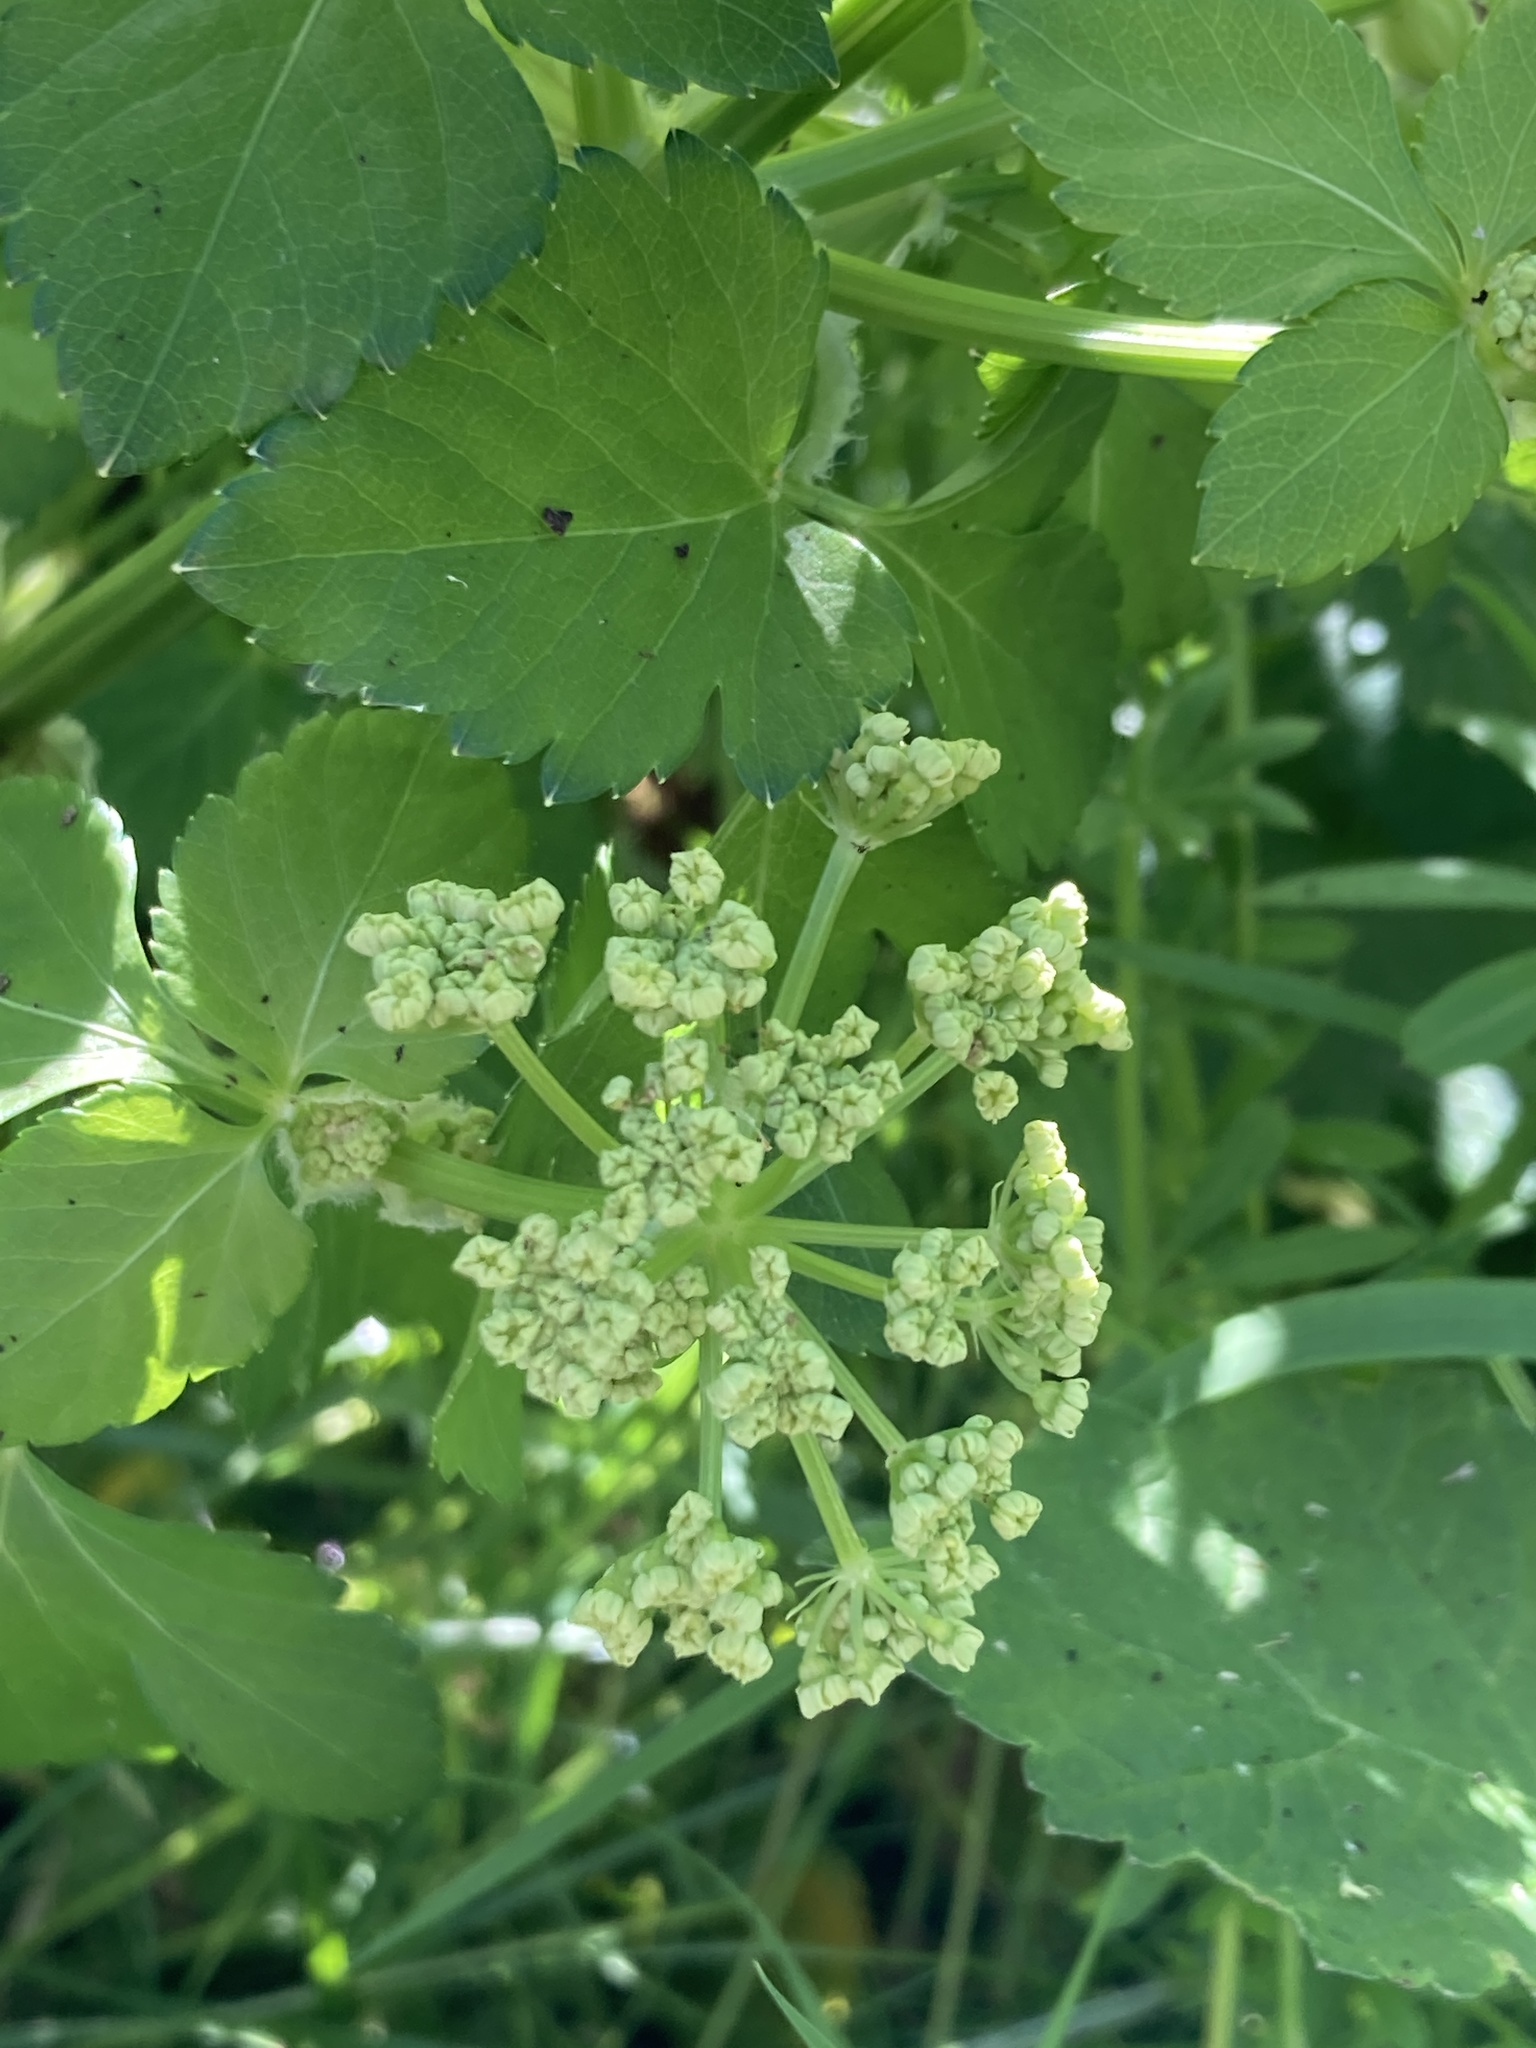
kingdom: Plantae
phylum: Tracheophyta
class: Magnoliopsida
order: Apiales
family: Apiaceae
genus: Smyrnium
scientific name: Smyrnium olusatrum
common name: Alexanders
